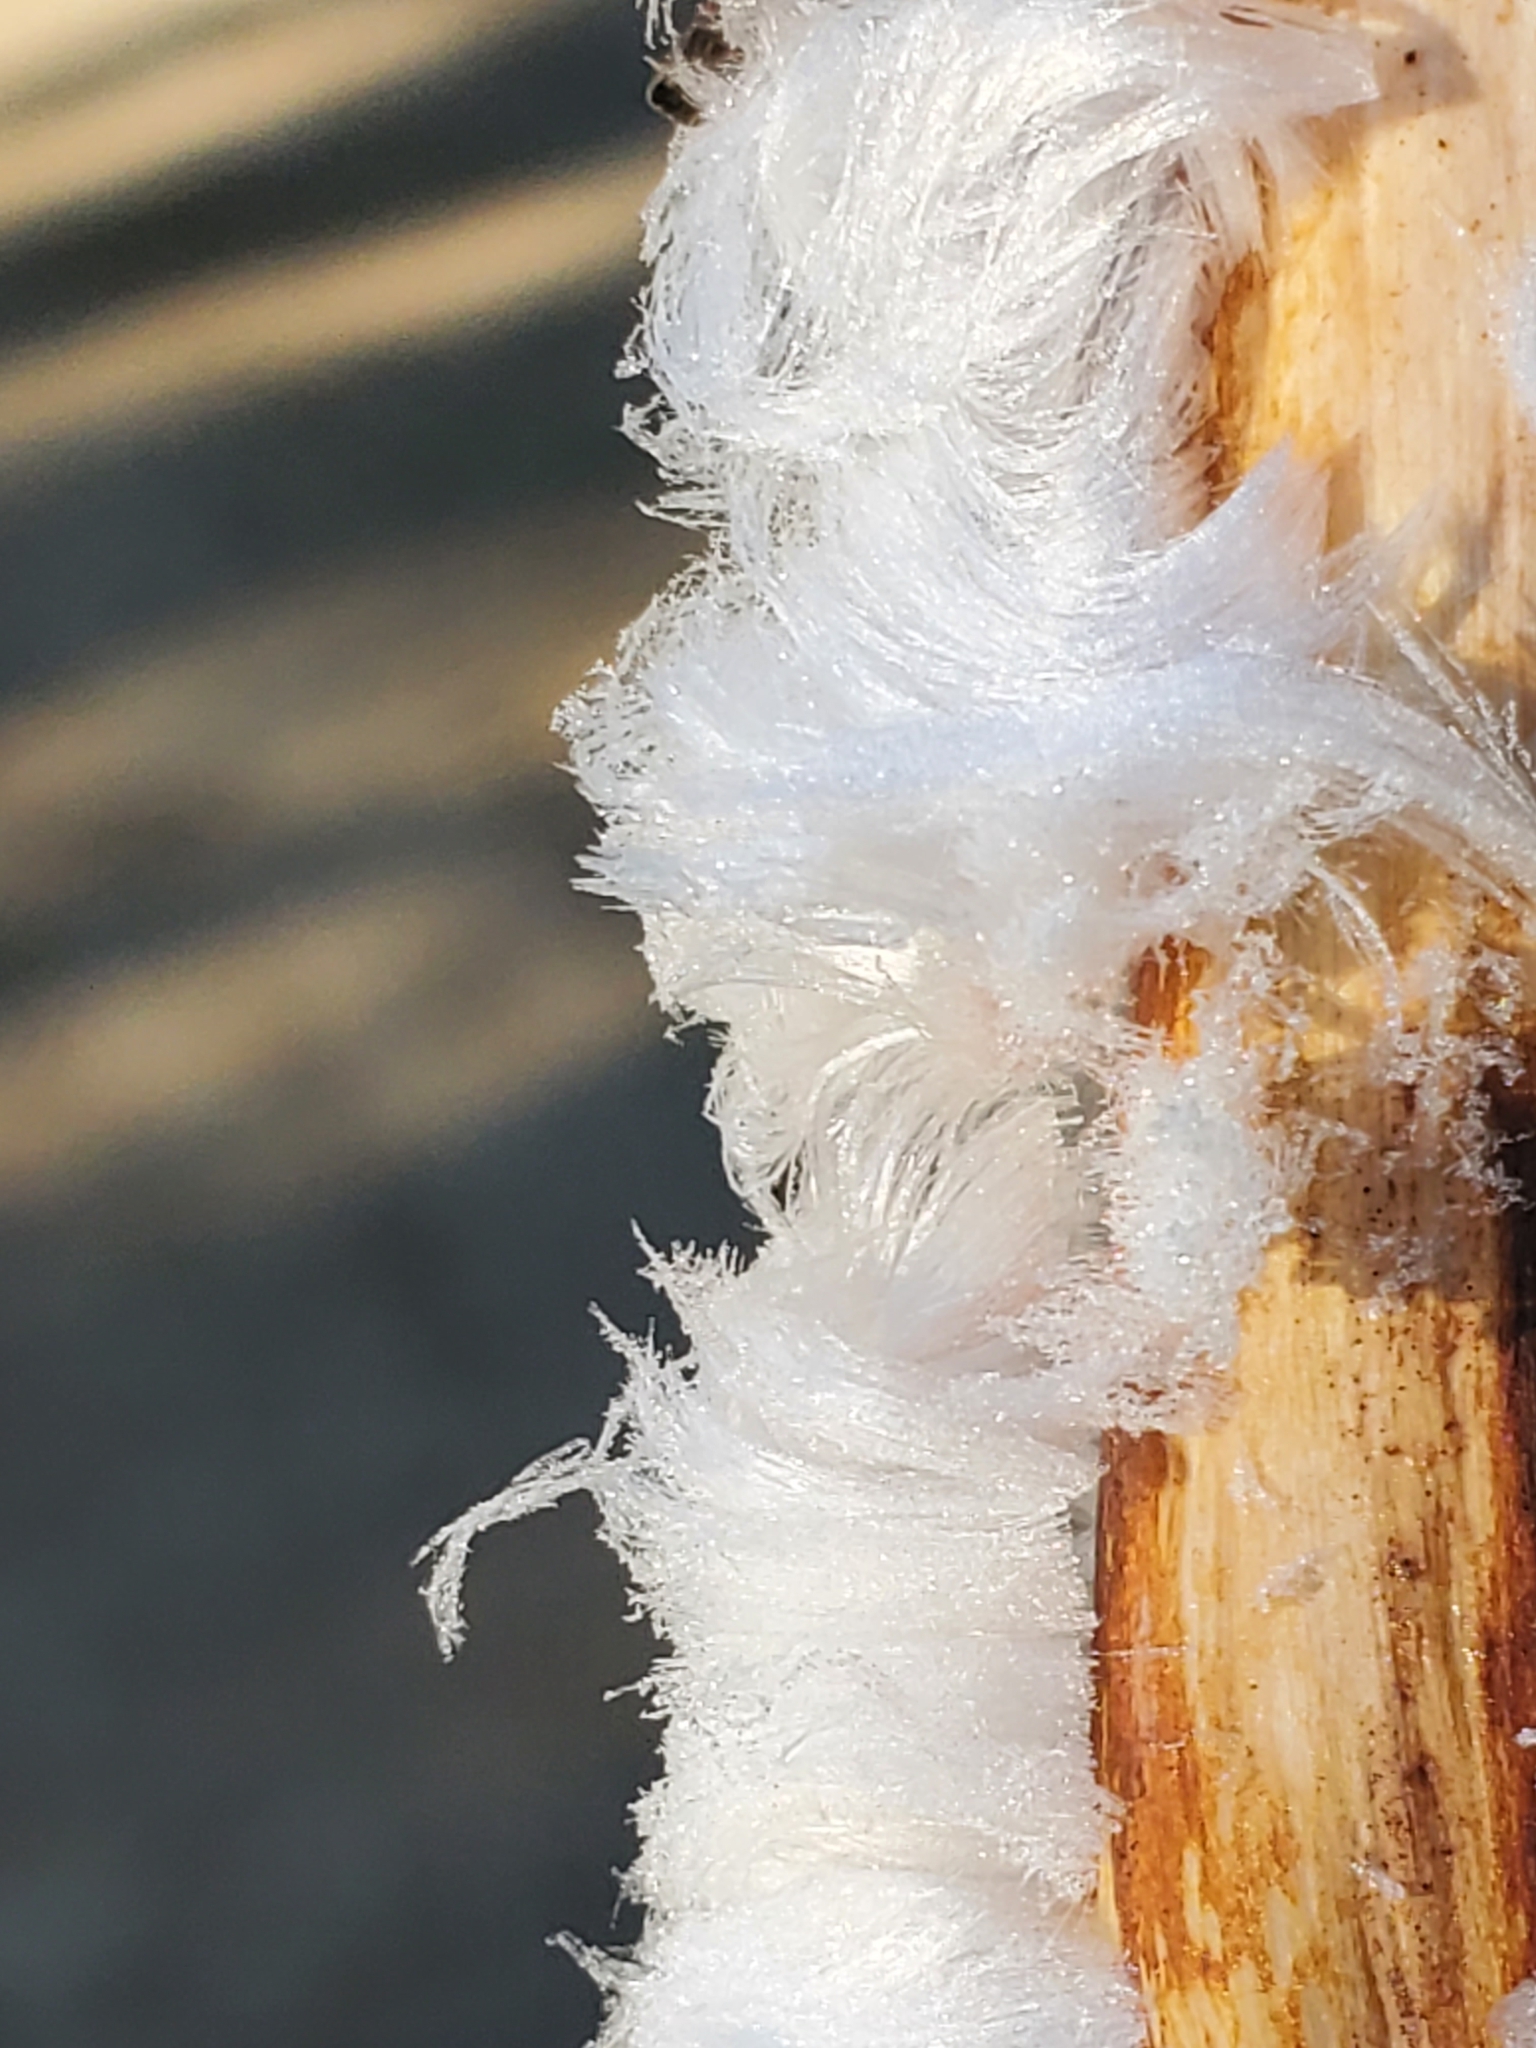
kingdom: Fungi
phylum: Basidiomycota
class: Agaricomycetes
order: Auriculariales
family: Auriculariaceae
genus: Exidiopsis
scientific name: Exidiopsis effusa
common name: Hair ice crust
